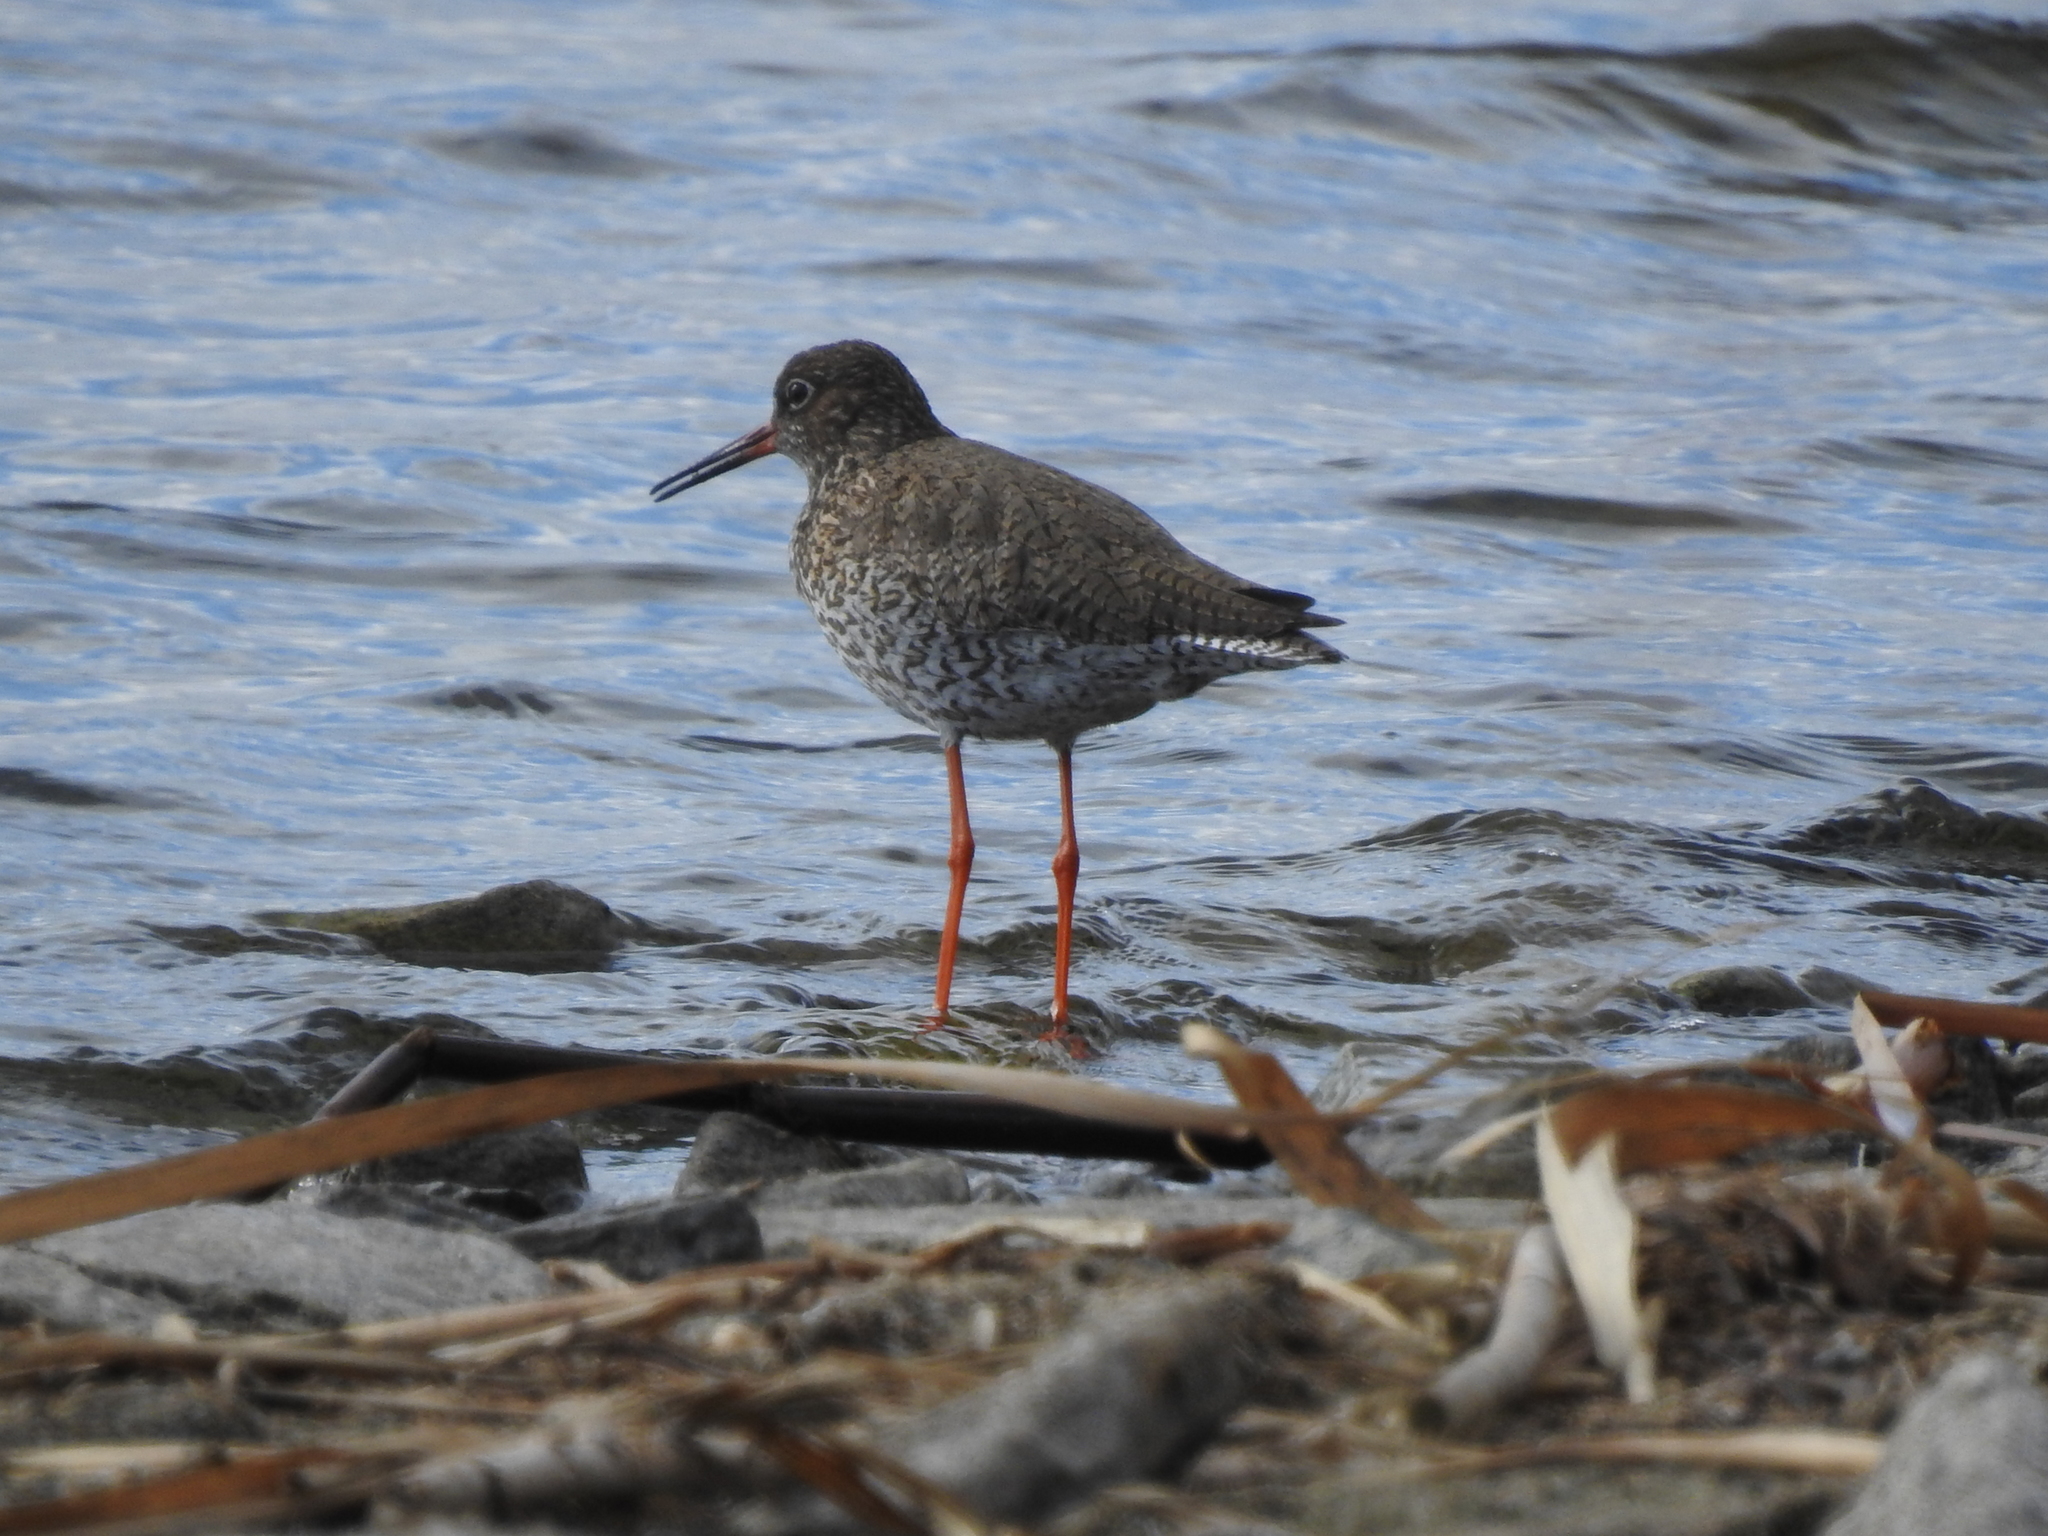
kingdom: Animalia
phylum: Chordata
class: Aves
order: Charadriiformes
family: Scolopacidae
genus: Tringa
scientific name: Tringa totanus
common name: Common redshank
